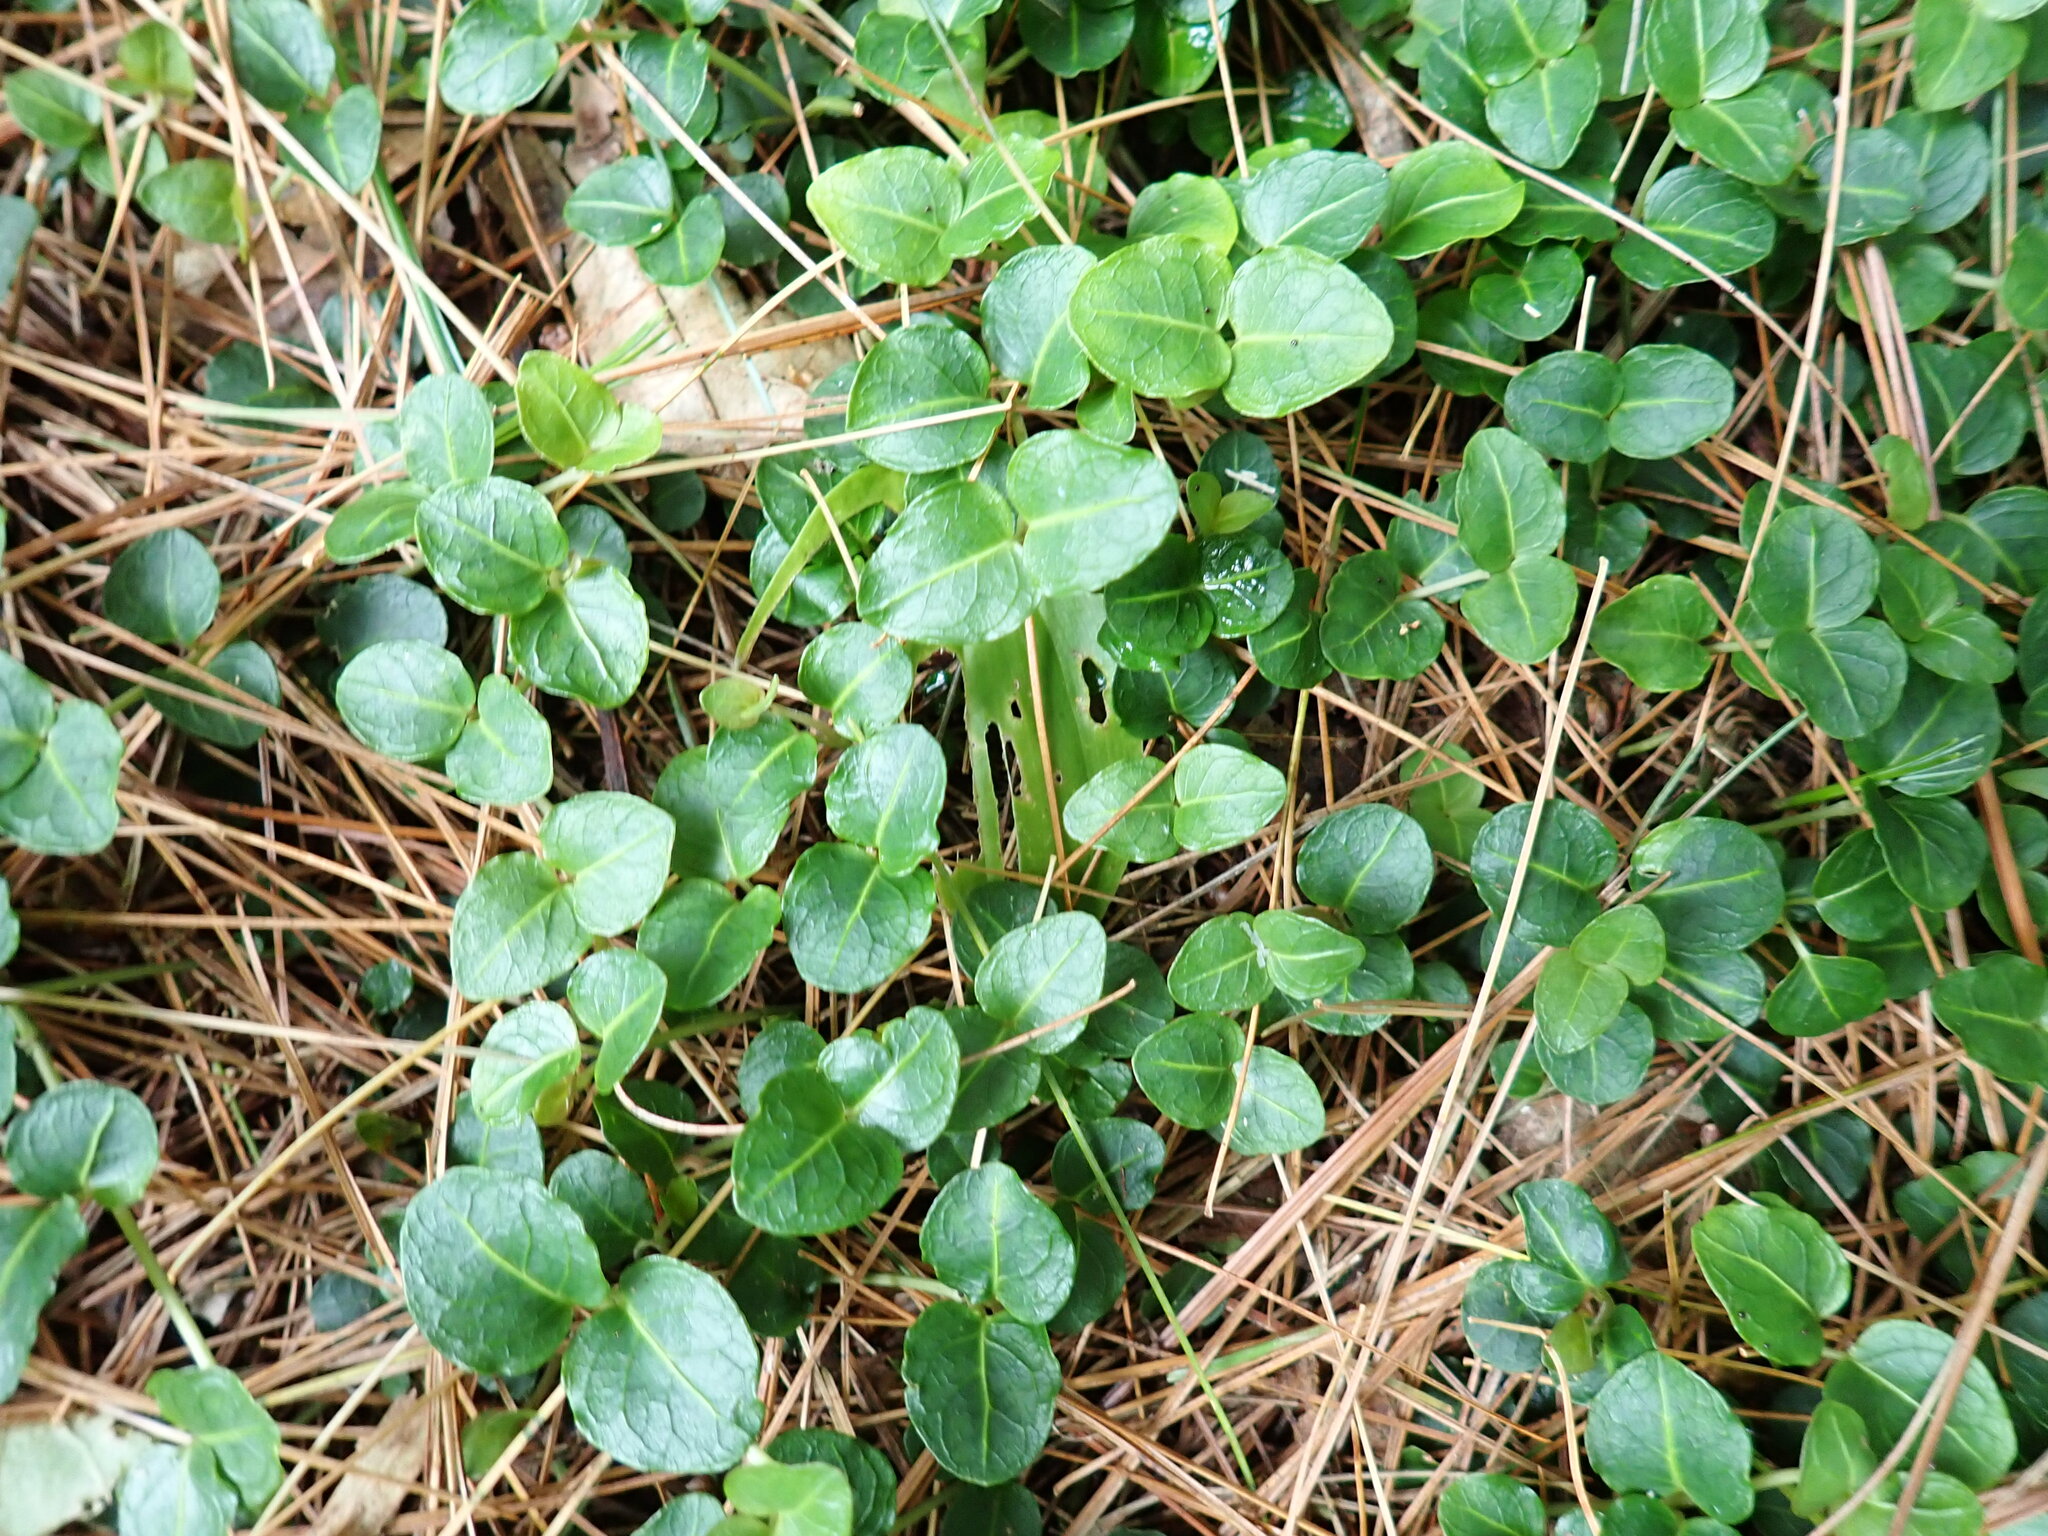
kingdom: Plantae
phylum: Tracheophyta
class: Magnoliopsida
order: Gentianales
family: Rubiaceae
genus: Mitchella
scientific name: Mitchella repens
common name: Partridge-berry
